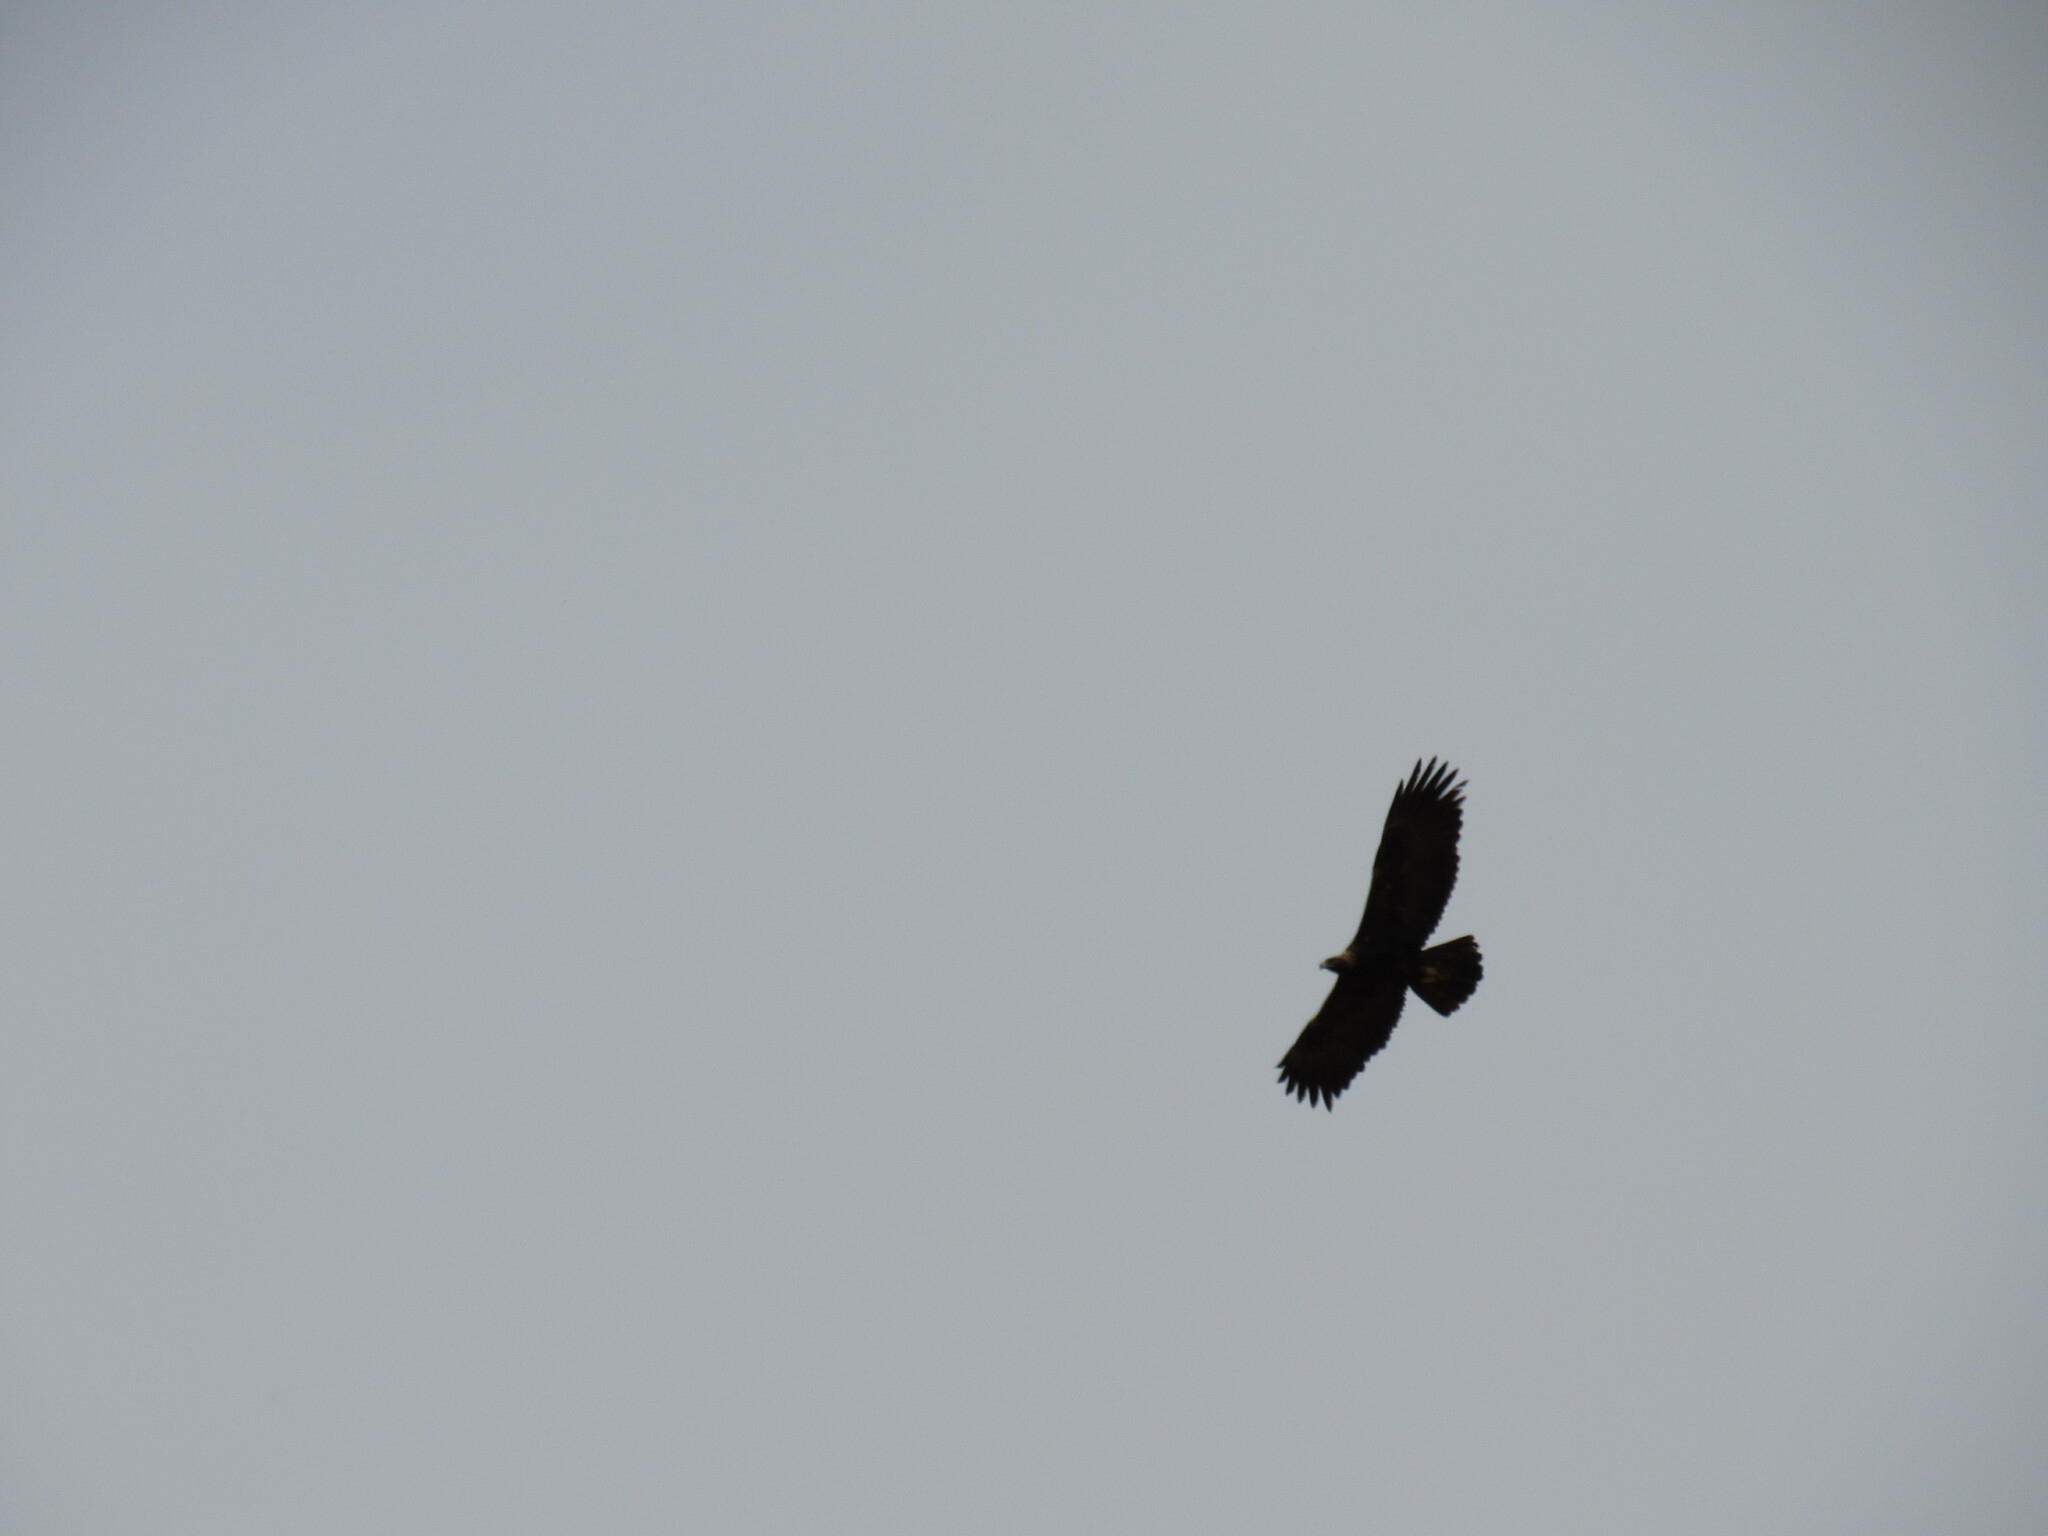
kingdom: Animalia
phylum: Chordata
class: Aves
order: Accipitriformes
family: Accipitridae
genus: Aquila
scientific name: Aquila chrysaetos
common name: Golden eagle
